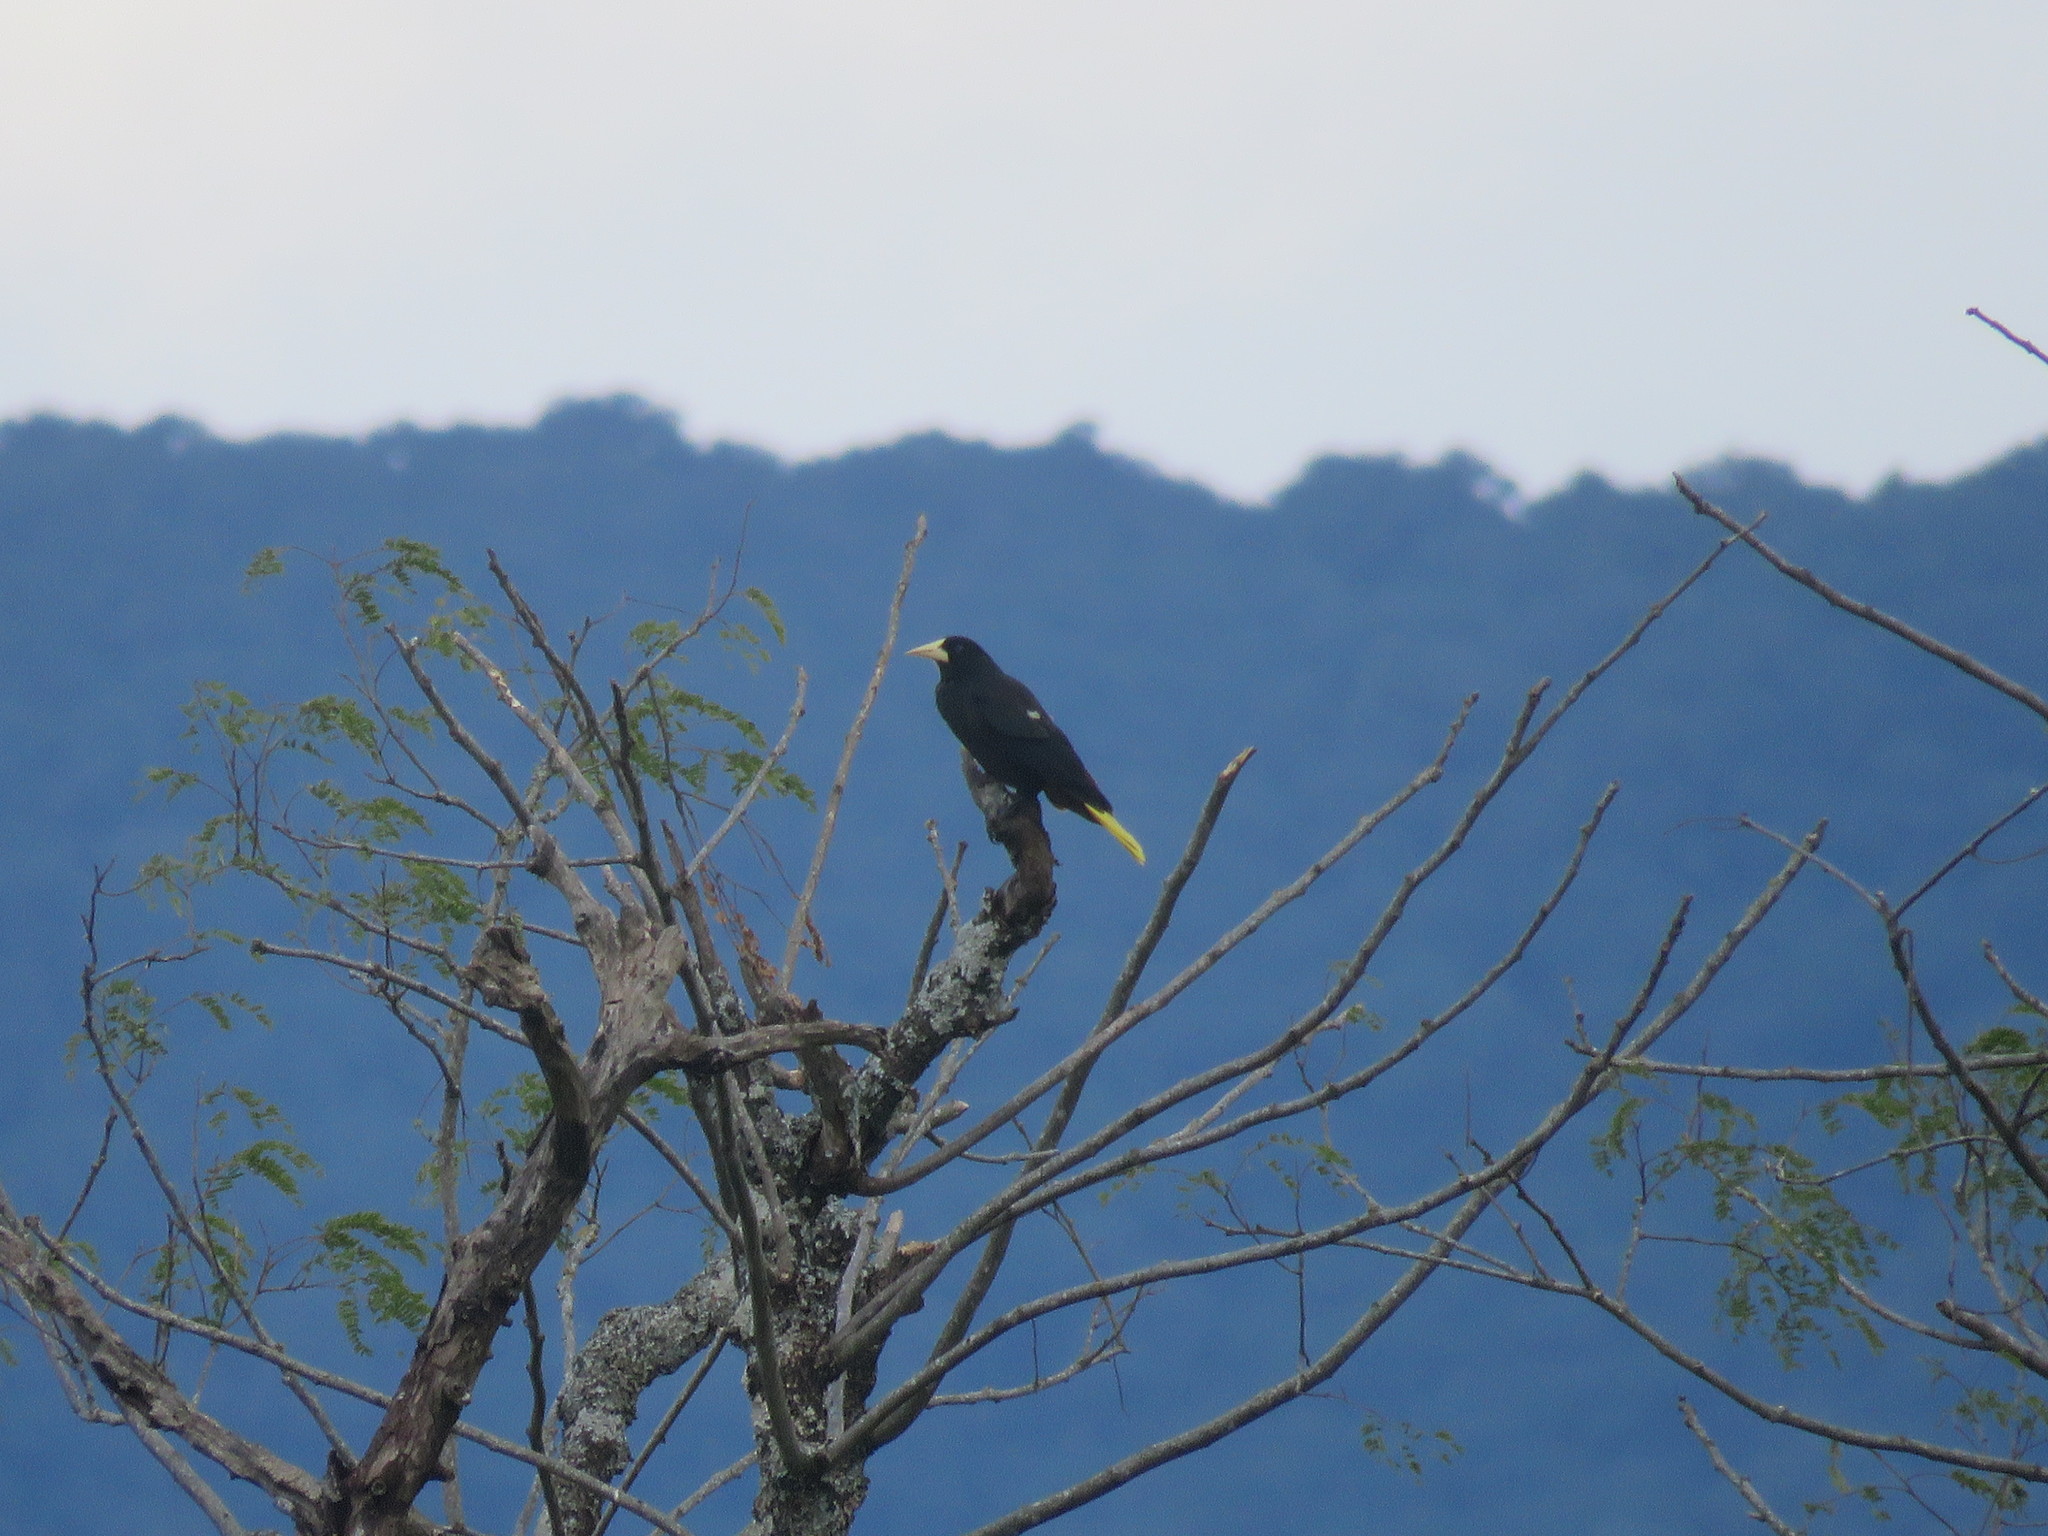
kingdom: Animalia
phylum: Chordata
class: Aves
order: Passeriformes
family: Icteridae
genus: Psarocolius
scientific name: Psarocolius decumanus
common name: Crested oropendola
